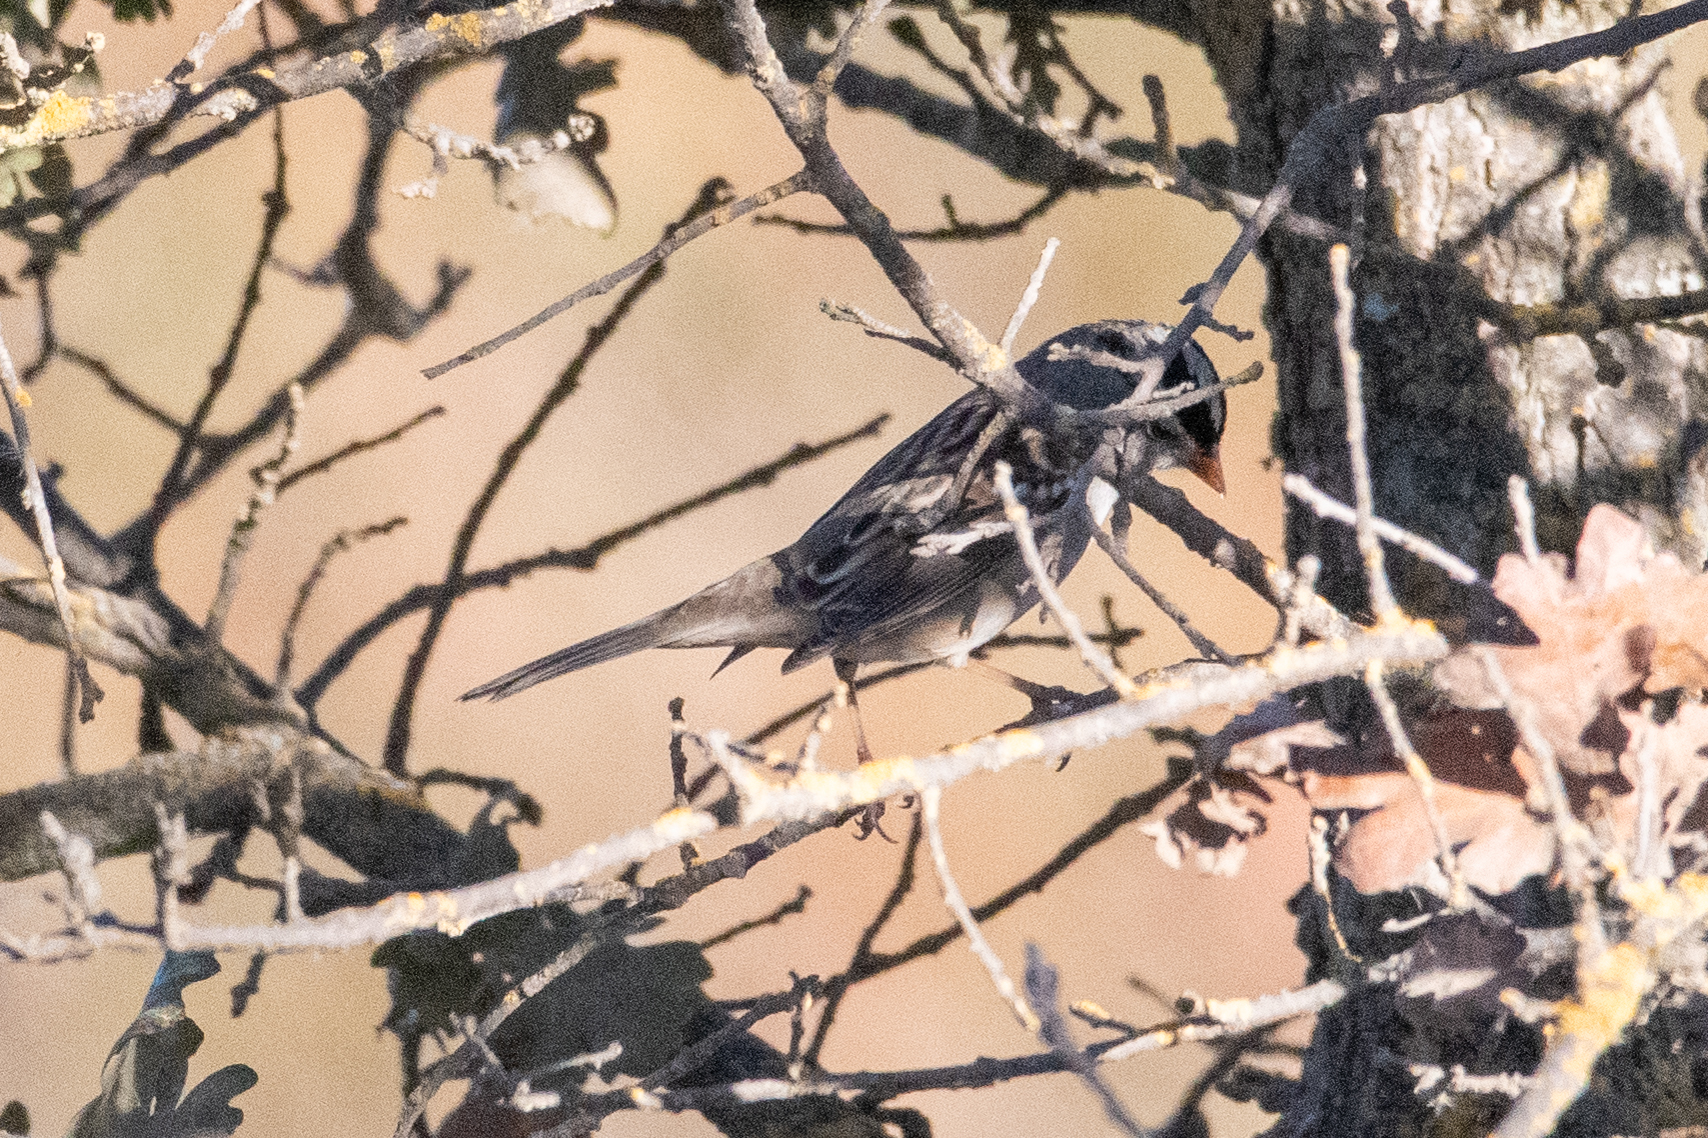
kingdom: Animalia
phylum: Chordata
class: Aves
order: Passeriformes
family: Passerellidae
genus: Zonotrichia
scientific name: Zonotrichia leucophrys
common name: White-crowned sparrow
